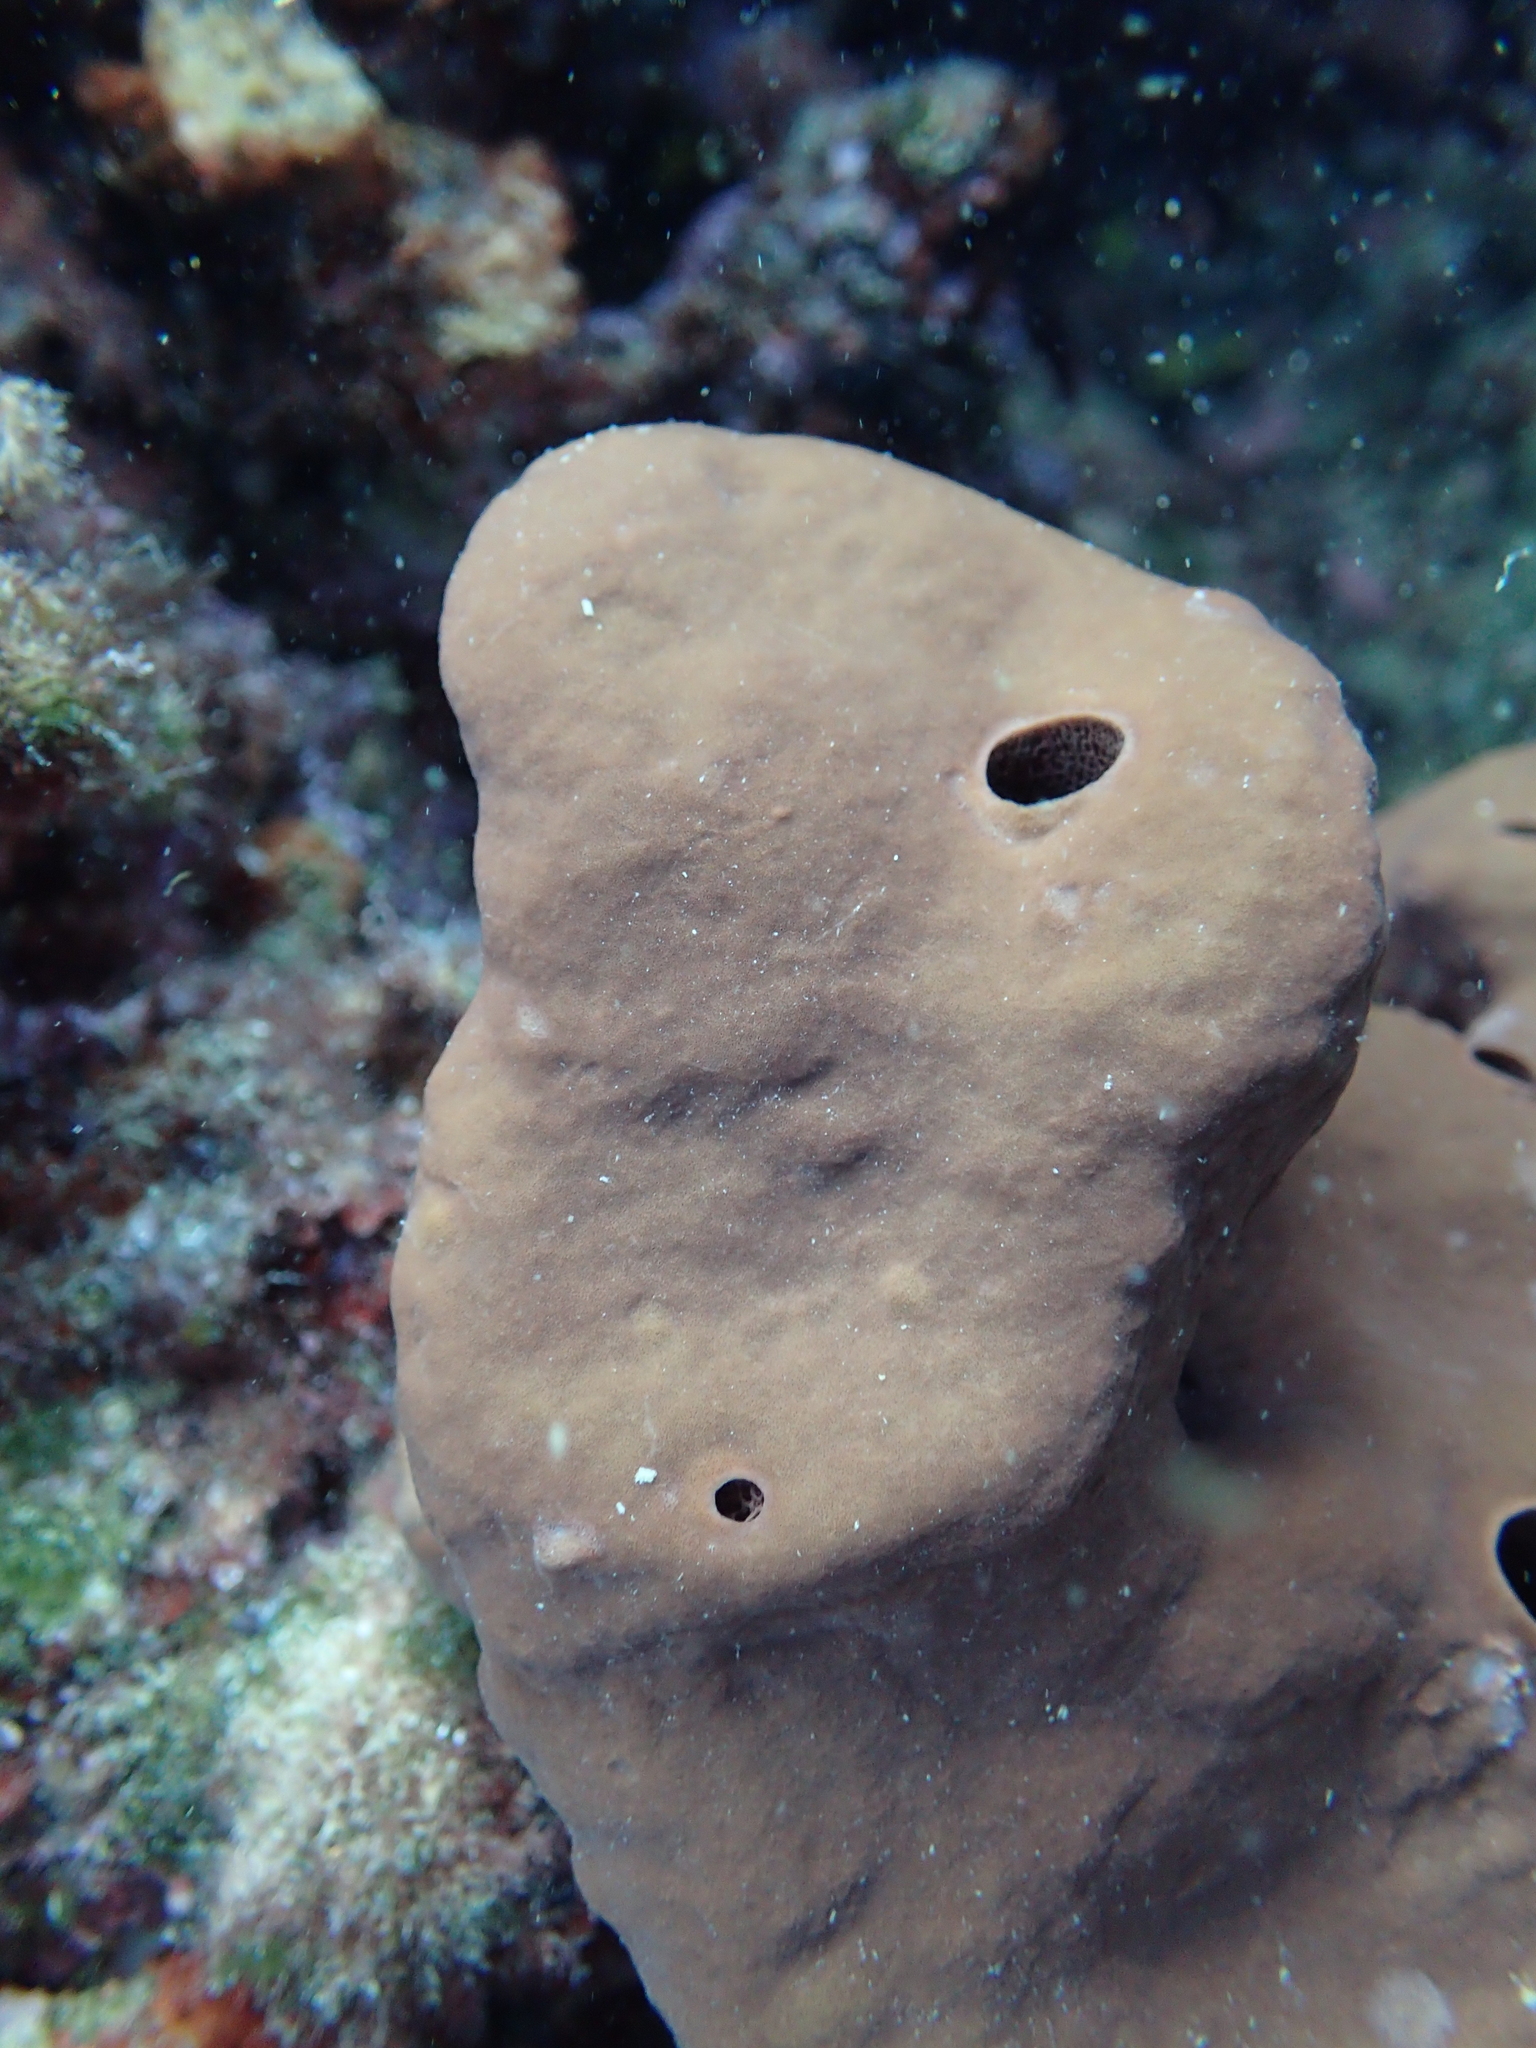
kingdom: Animalia
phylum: Porifera
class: Demospongiae
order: Haplosclerida
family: Petrosiidae
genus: Petrosia
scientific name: Petrosia ficiformis
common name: Stony sponge
